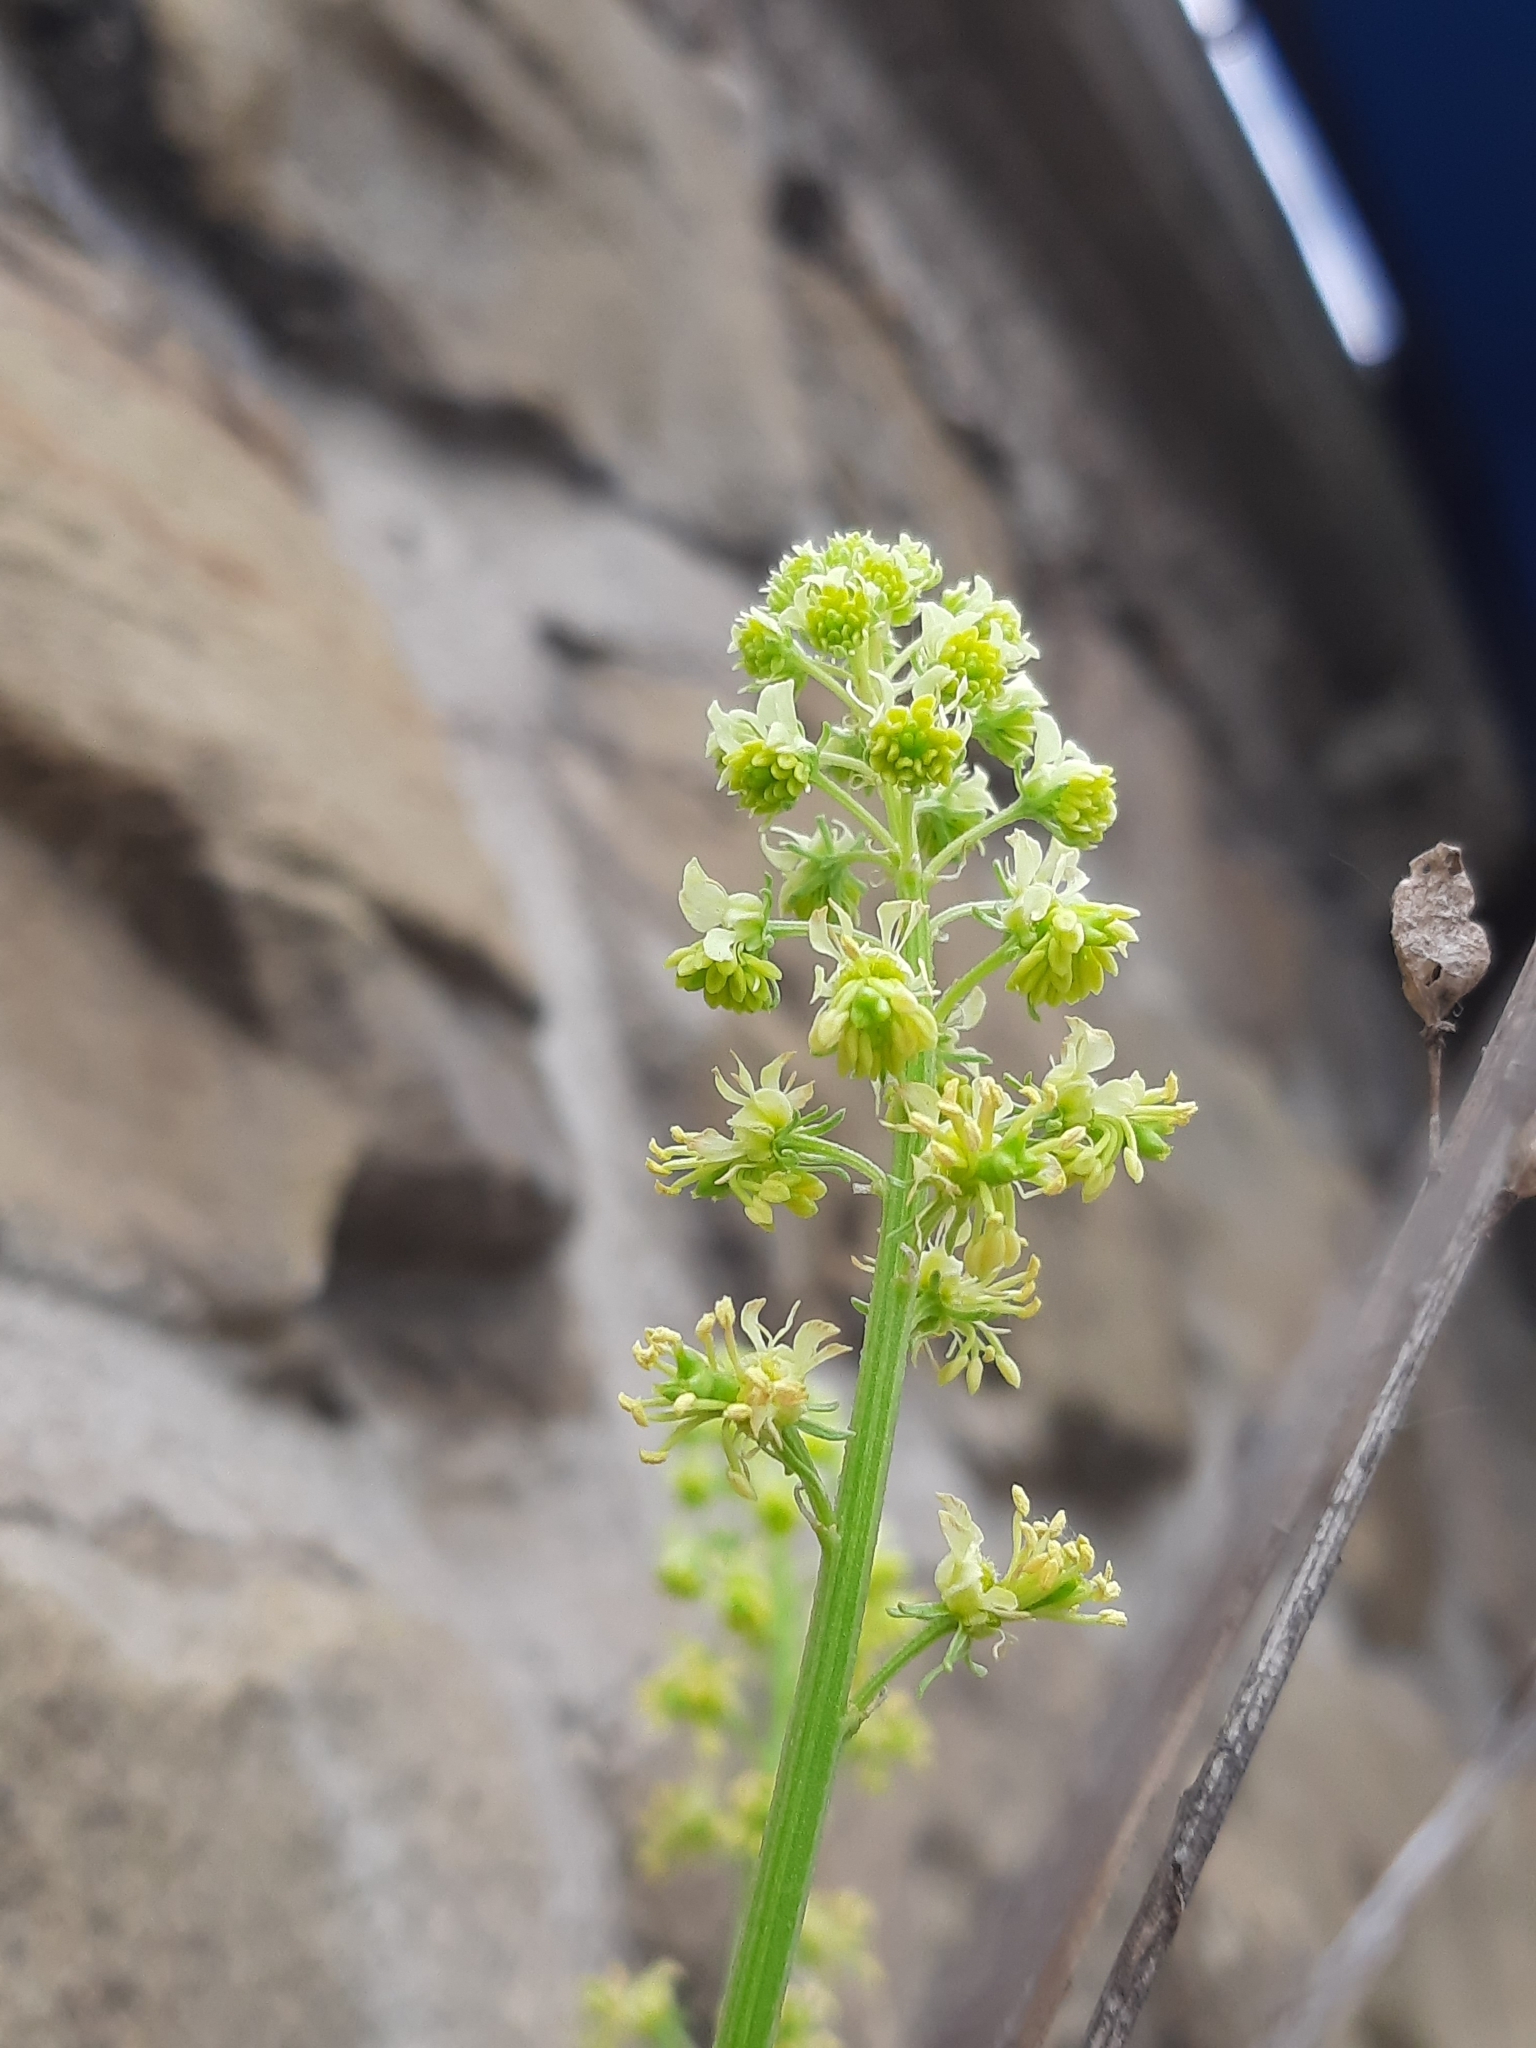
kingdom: Plantae
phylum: Tracheophyta
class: Magnoliopsida
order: Brassicales
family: Resedaceae
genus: Reseda
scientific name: Reseda lutea
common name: Wild mignonette
